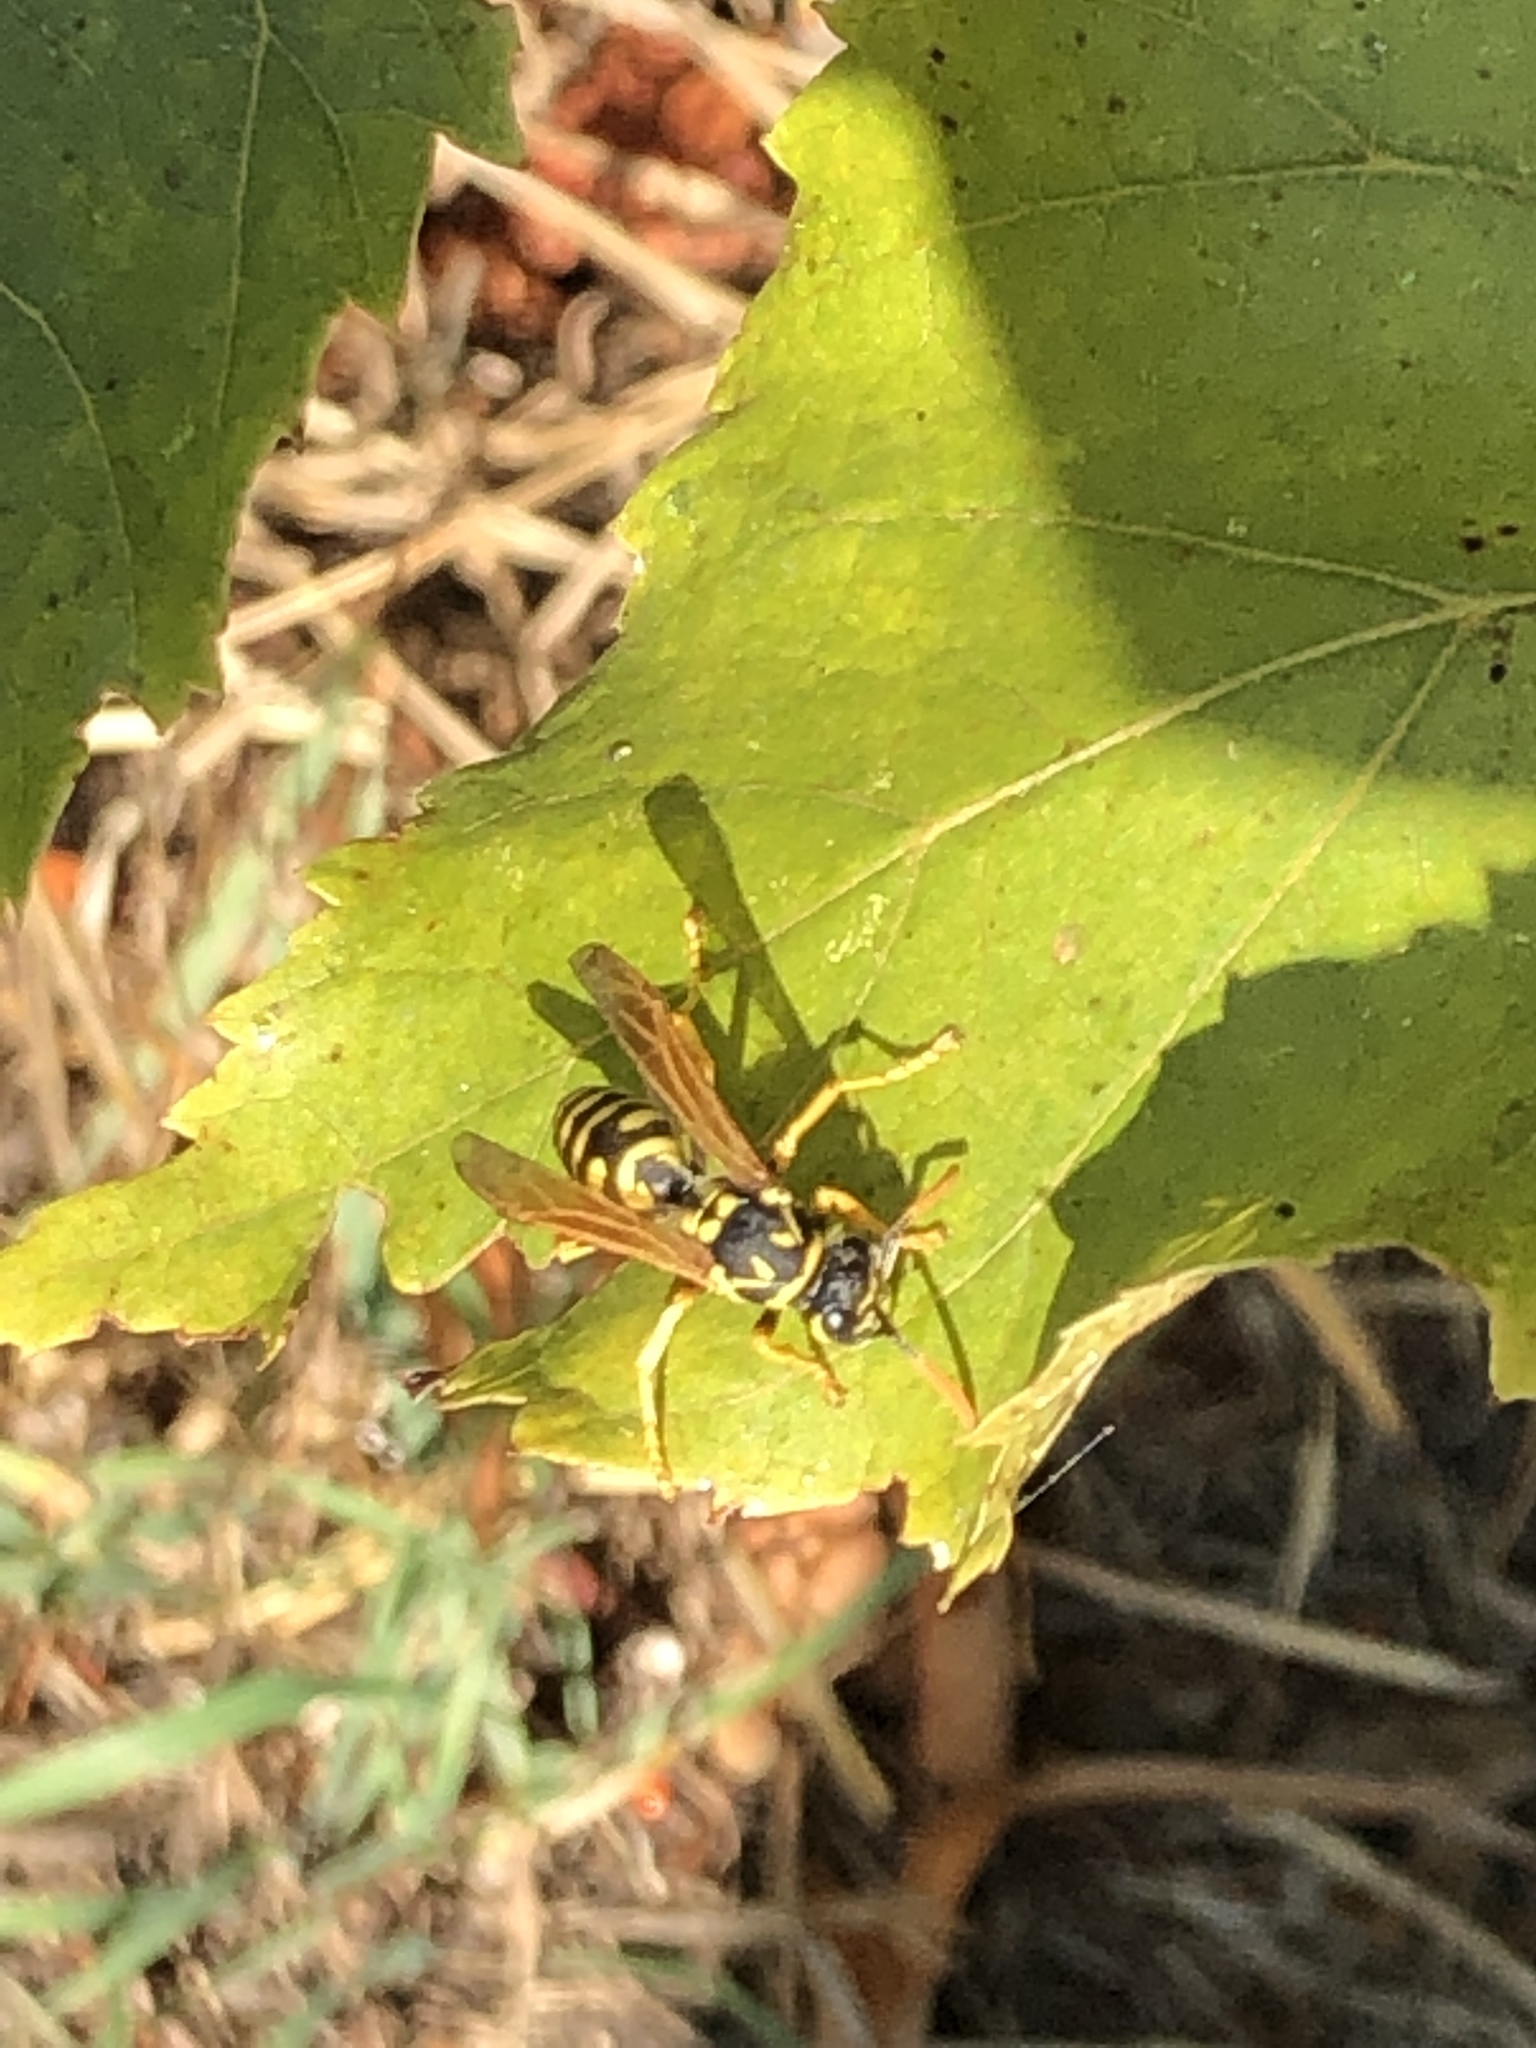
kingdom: Animalia
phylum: Arthropoda
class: Insecta
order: Hymenoptera
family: Eumenidae
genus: Polistes
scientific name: Polistes dominula
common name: Paper wasp
